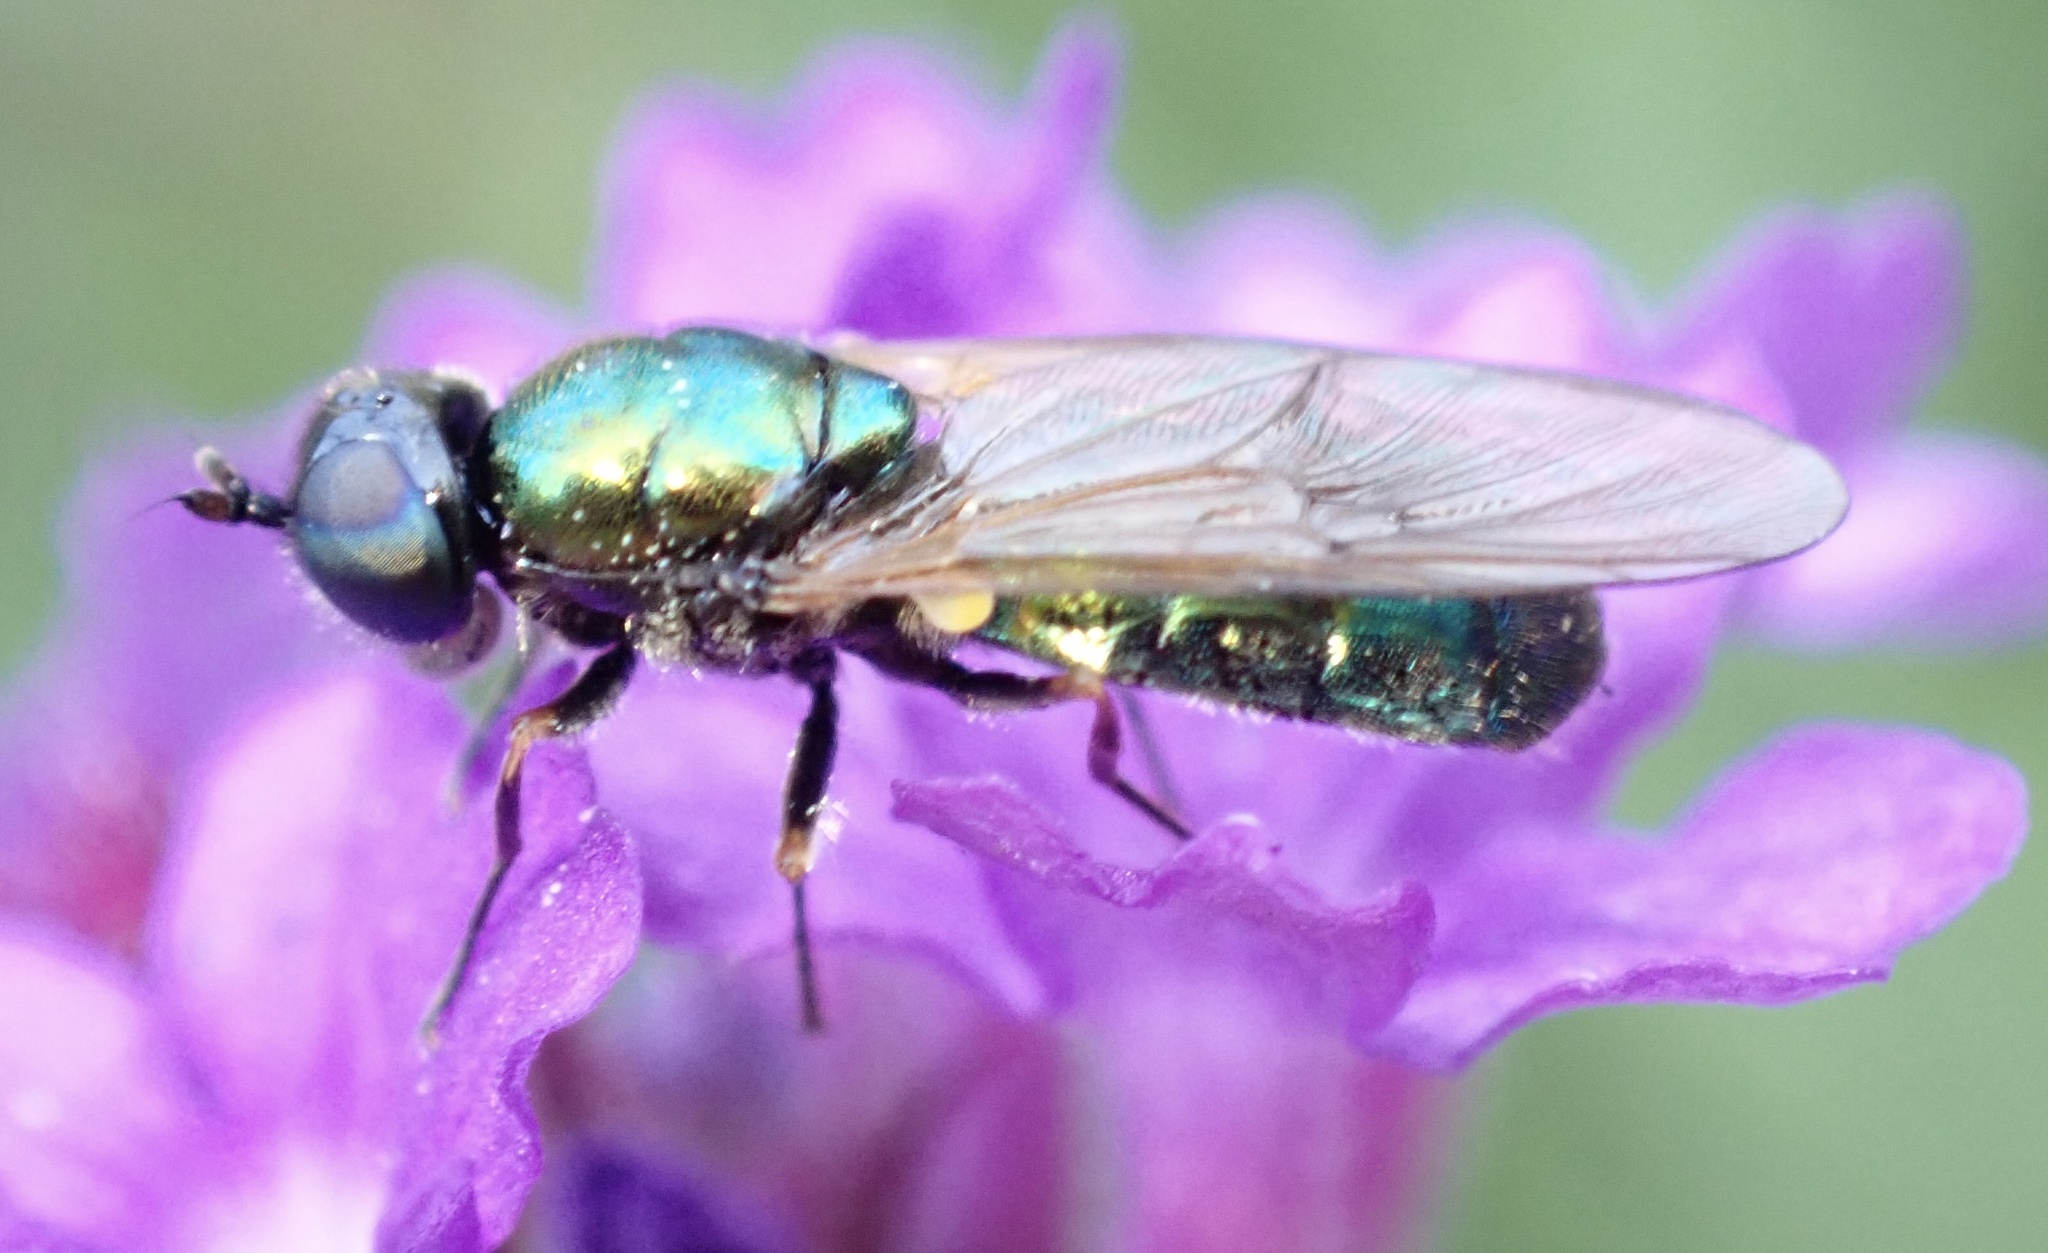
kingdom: Animalia
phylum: Arthropoda
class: Insecta
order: Diptera
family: Stratiomyidae
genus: Chloromyia
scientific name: Chloromyia formosa
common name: Soldier fly
